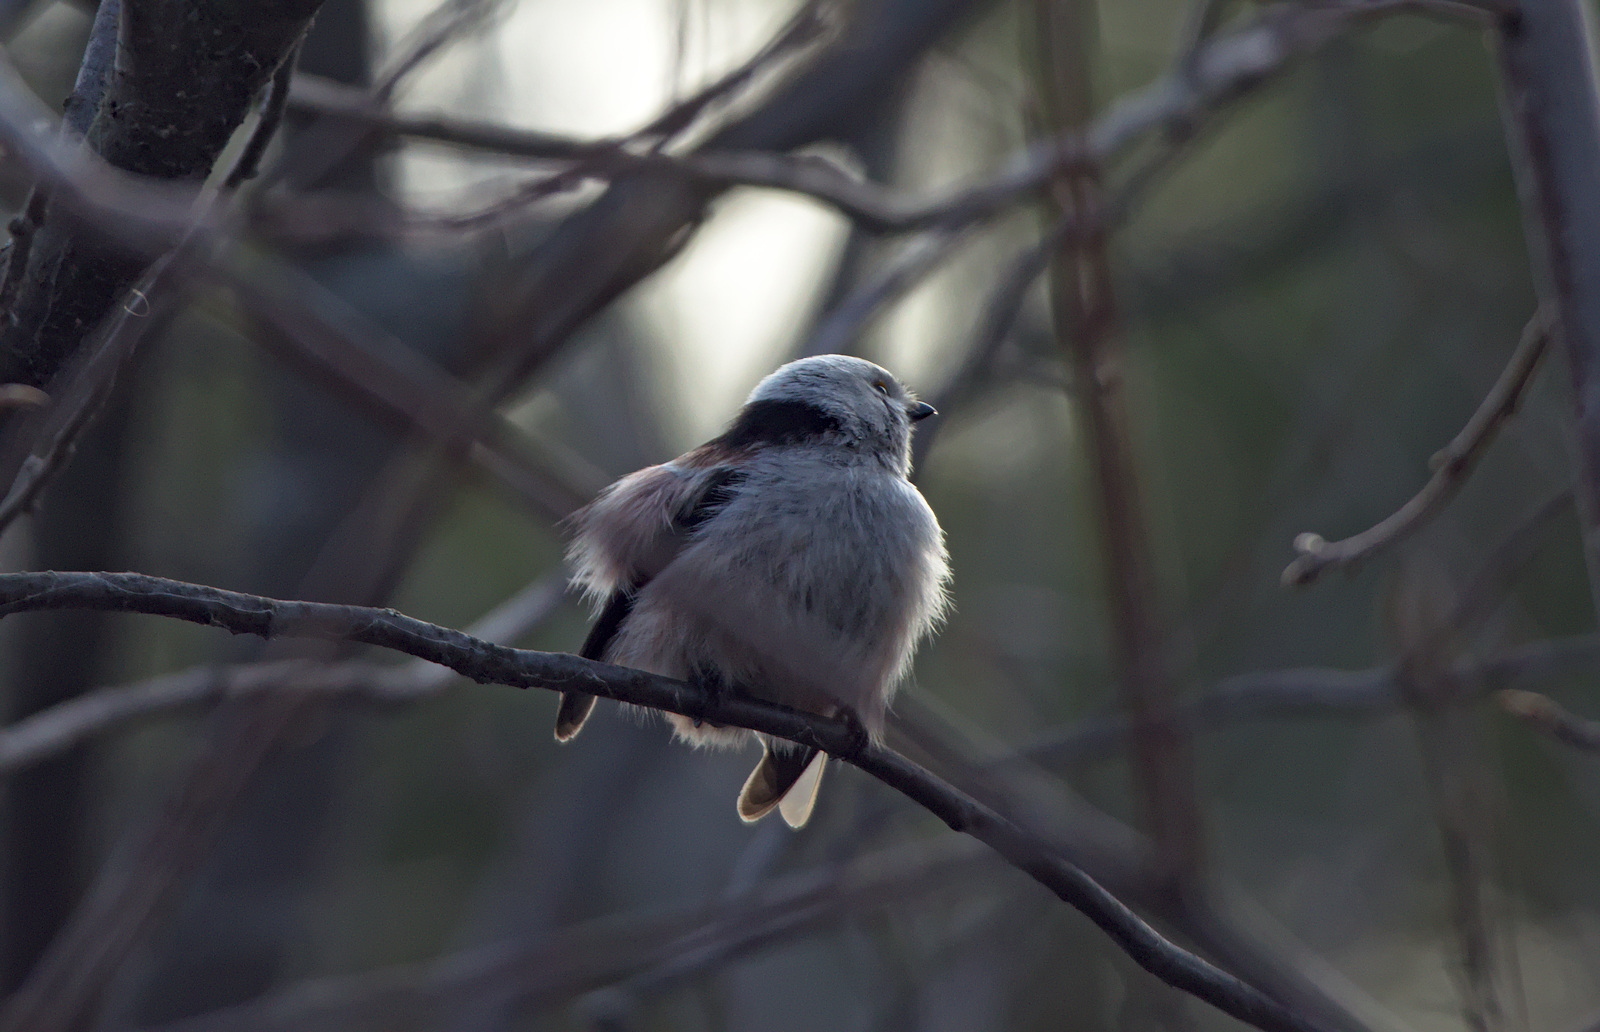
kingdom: Animalia
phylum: Chordata
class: Aves
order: Passeriformes
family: Aegithalidae
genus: Aegithalos
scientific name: Aegithalos caudatus
